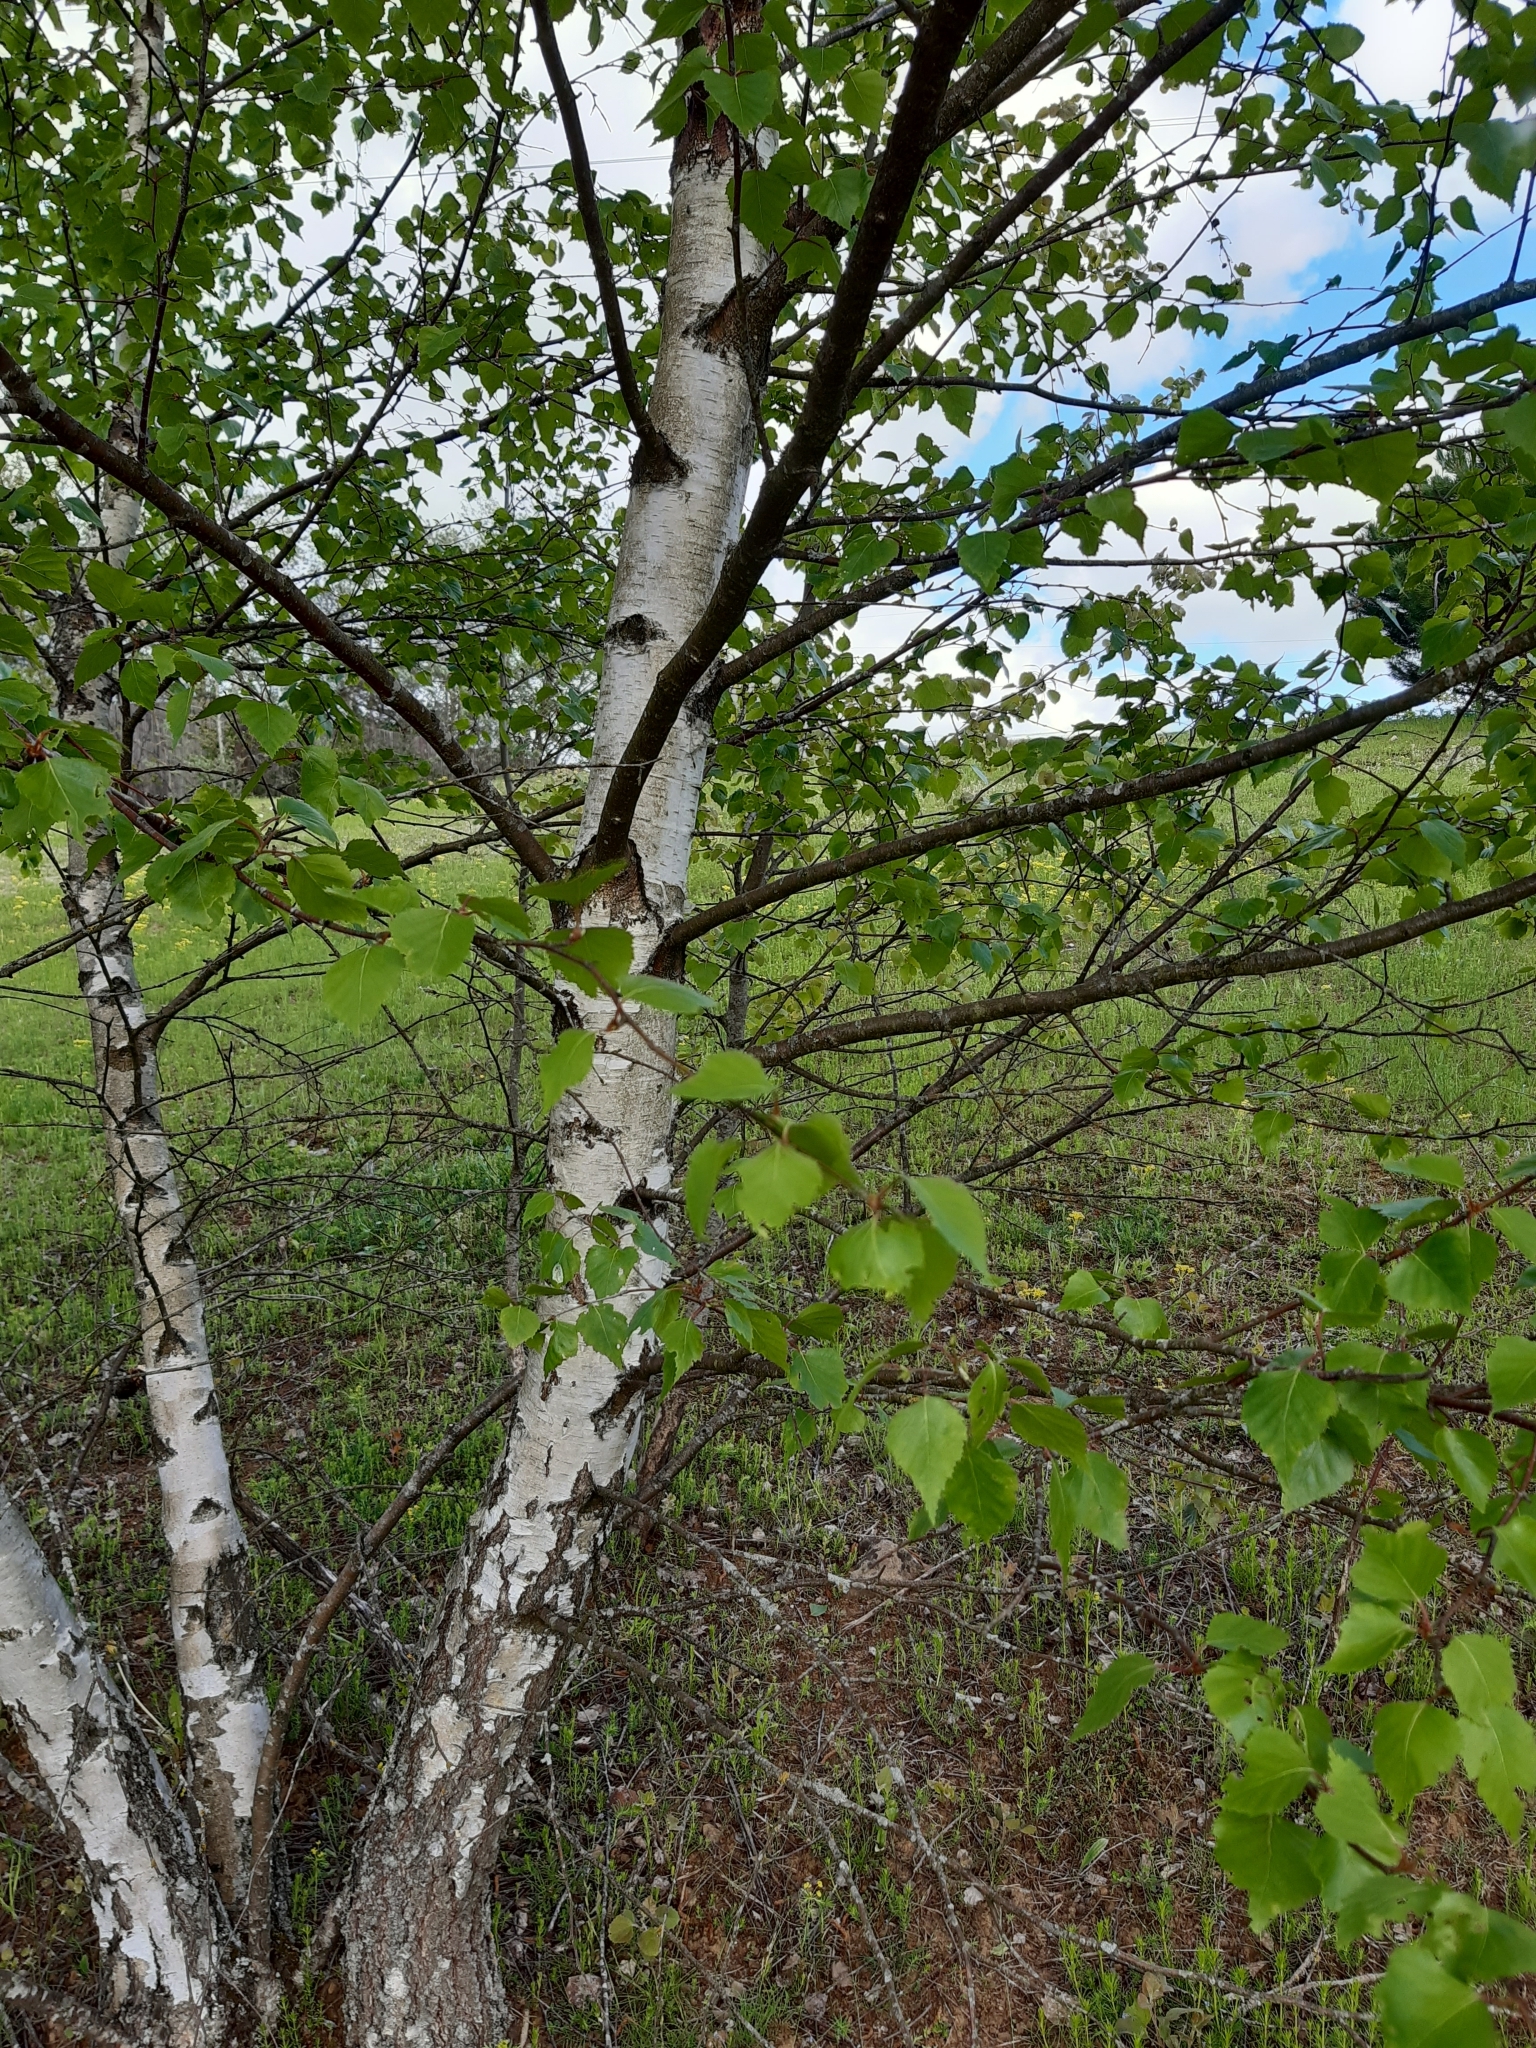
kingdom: Plantae
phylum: Tracheophyta
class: Magnoliopsida
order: Fagales
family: Betulaceae
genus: Betula
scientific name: Betula pendula
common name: Silver birch
